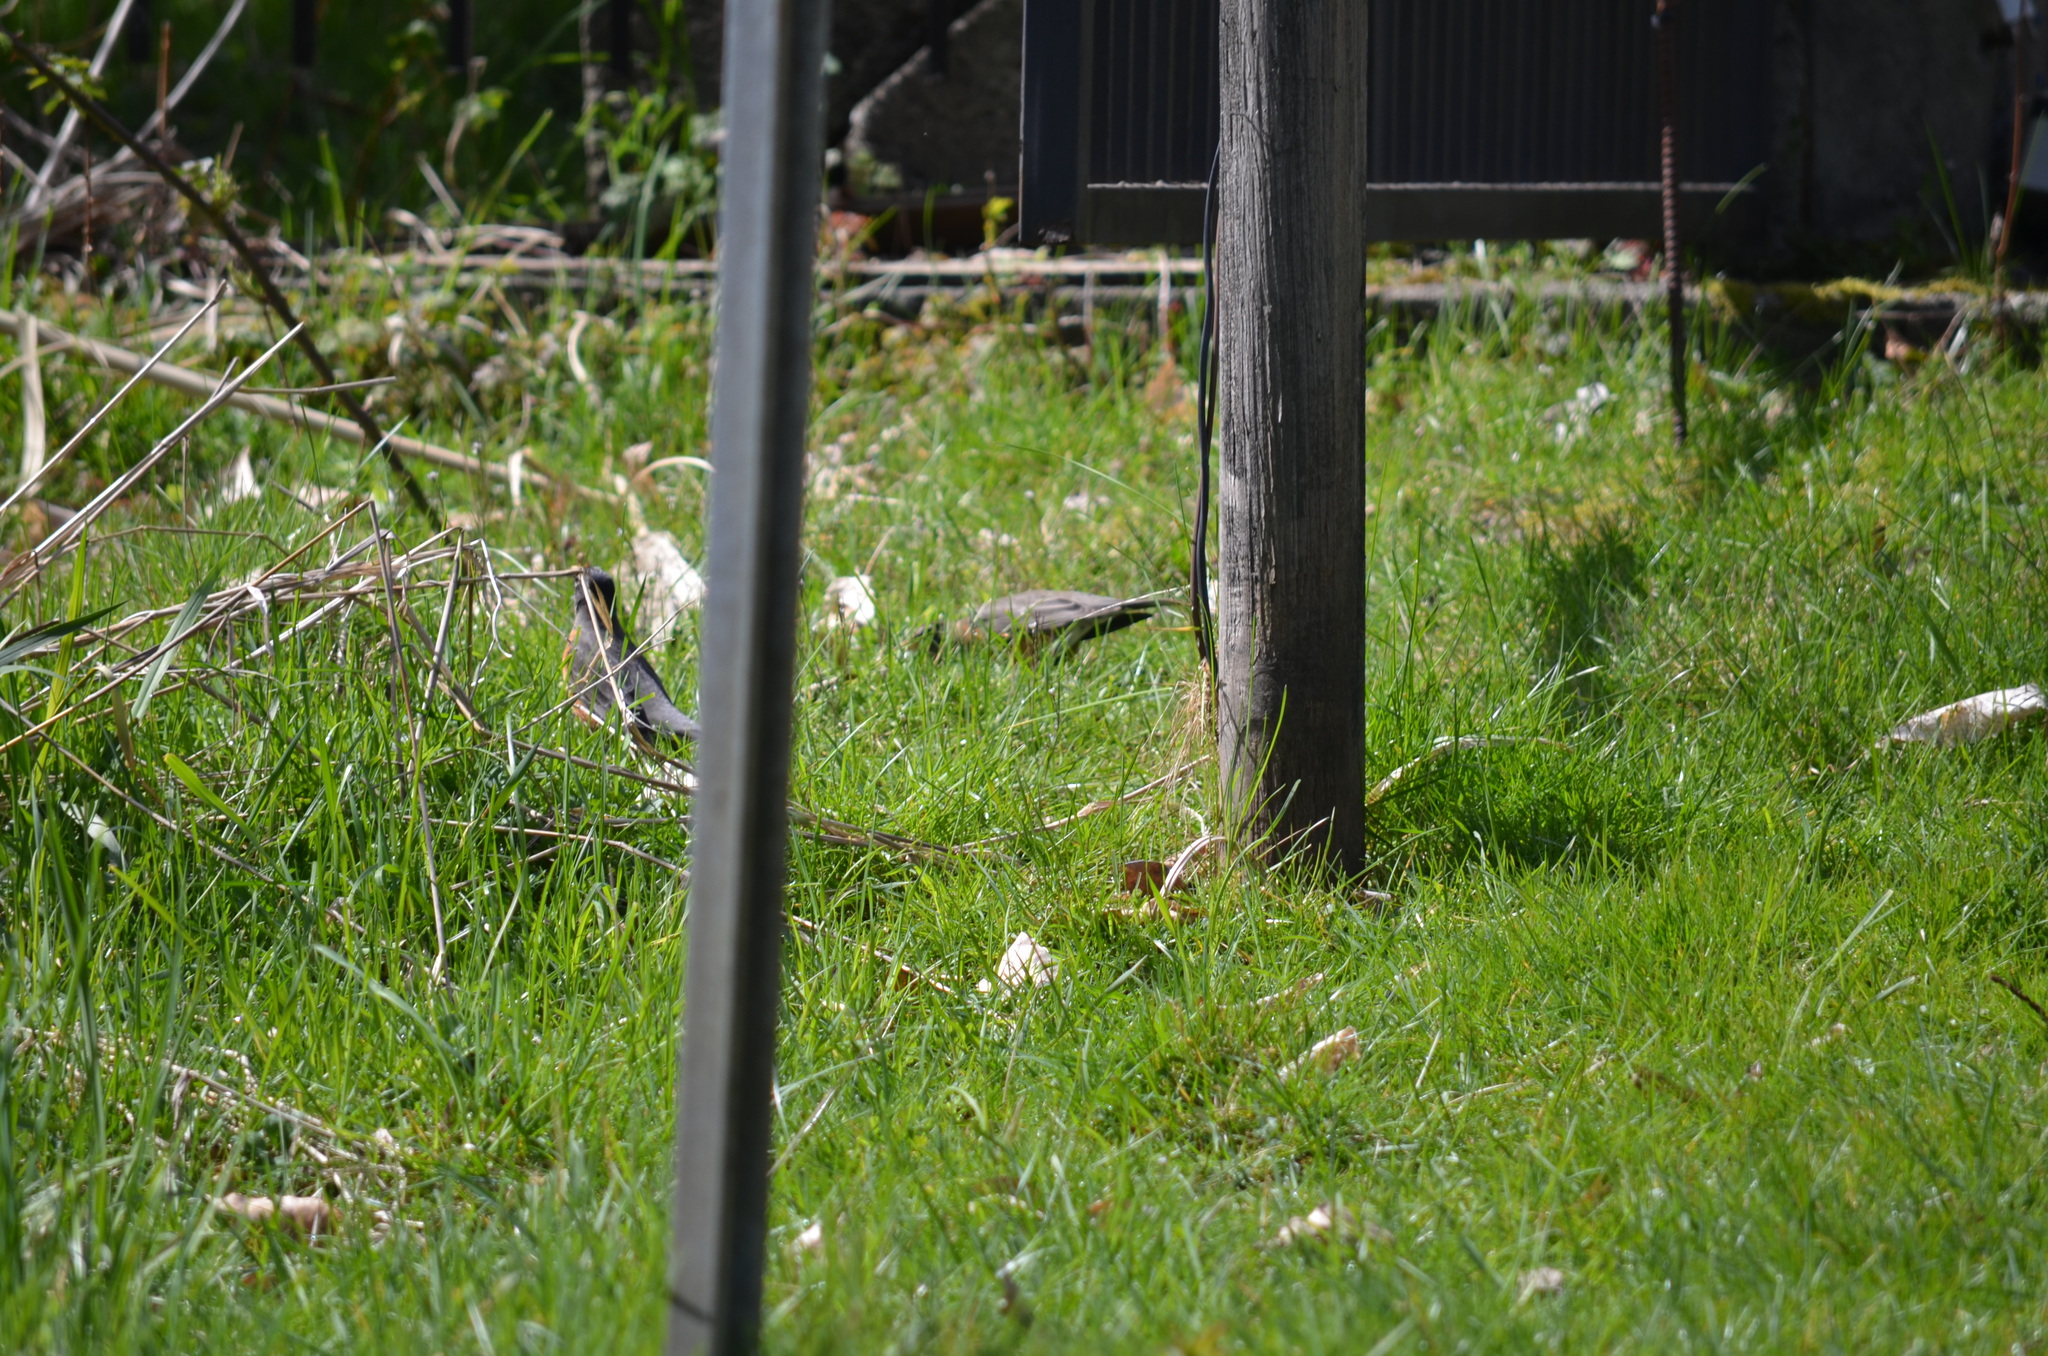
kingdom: Animalia
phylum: Chordata
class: Aves
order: Passeriformes
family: Turdidae
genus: Turdus
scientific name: Turdus migratorius
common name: American robin
